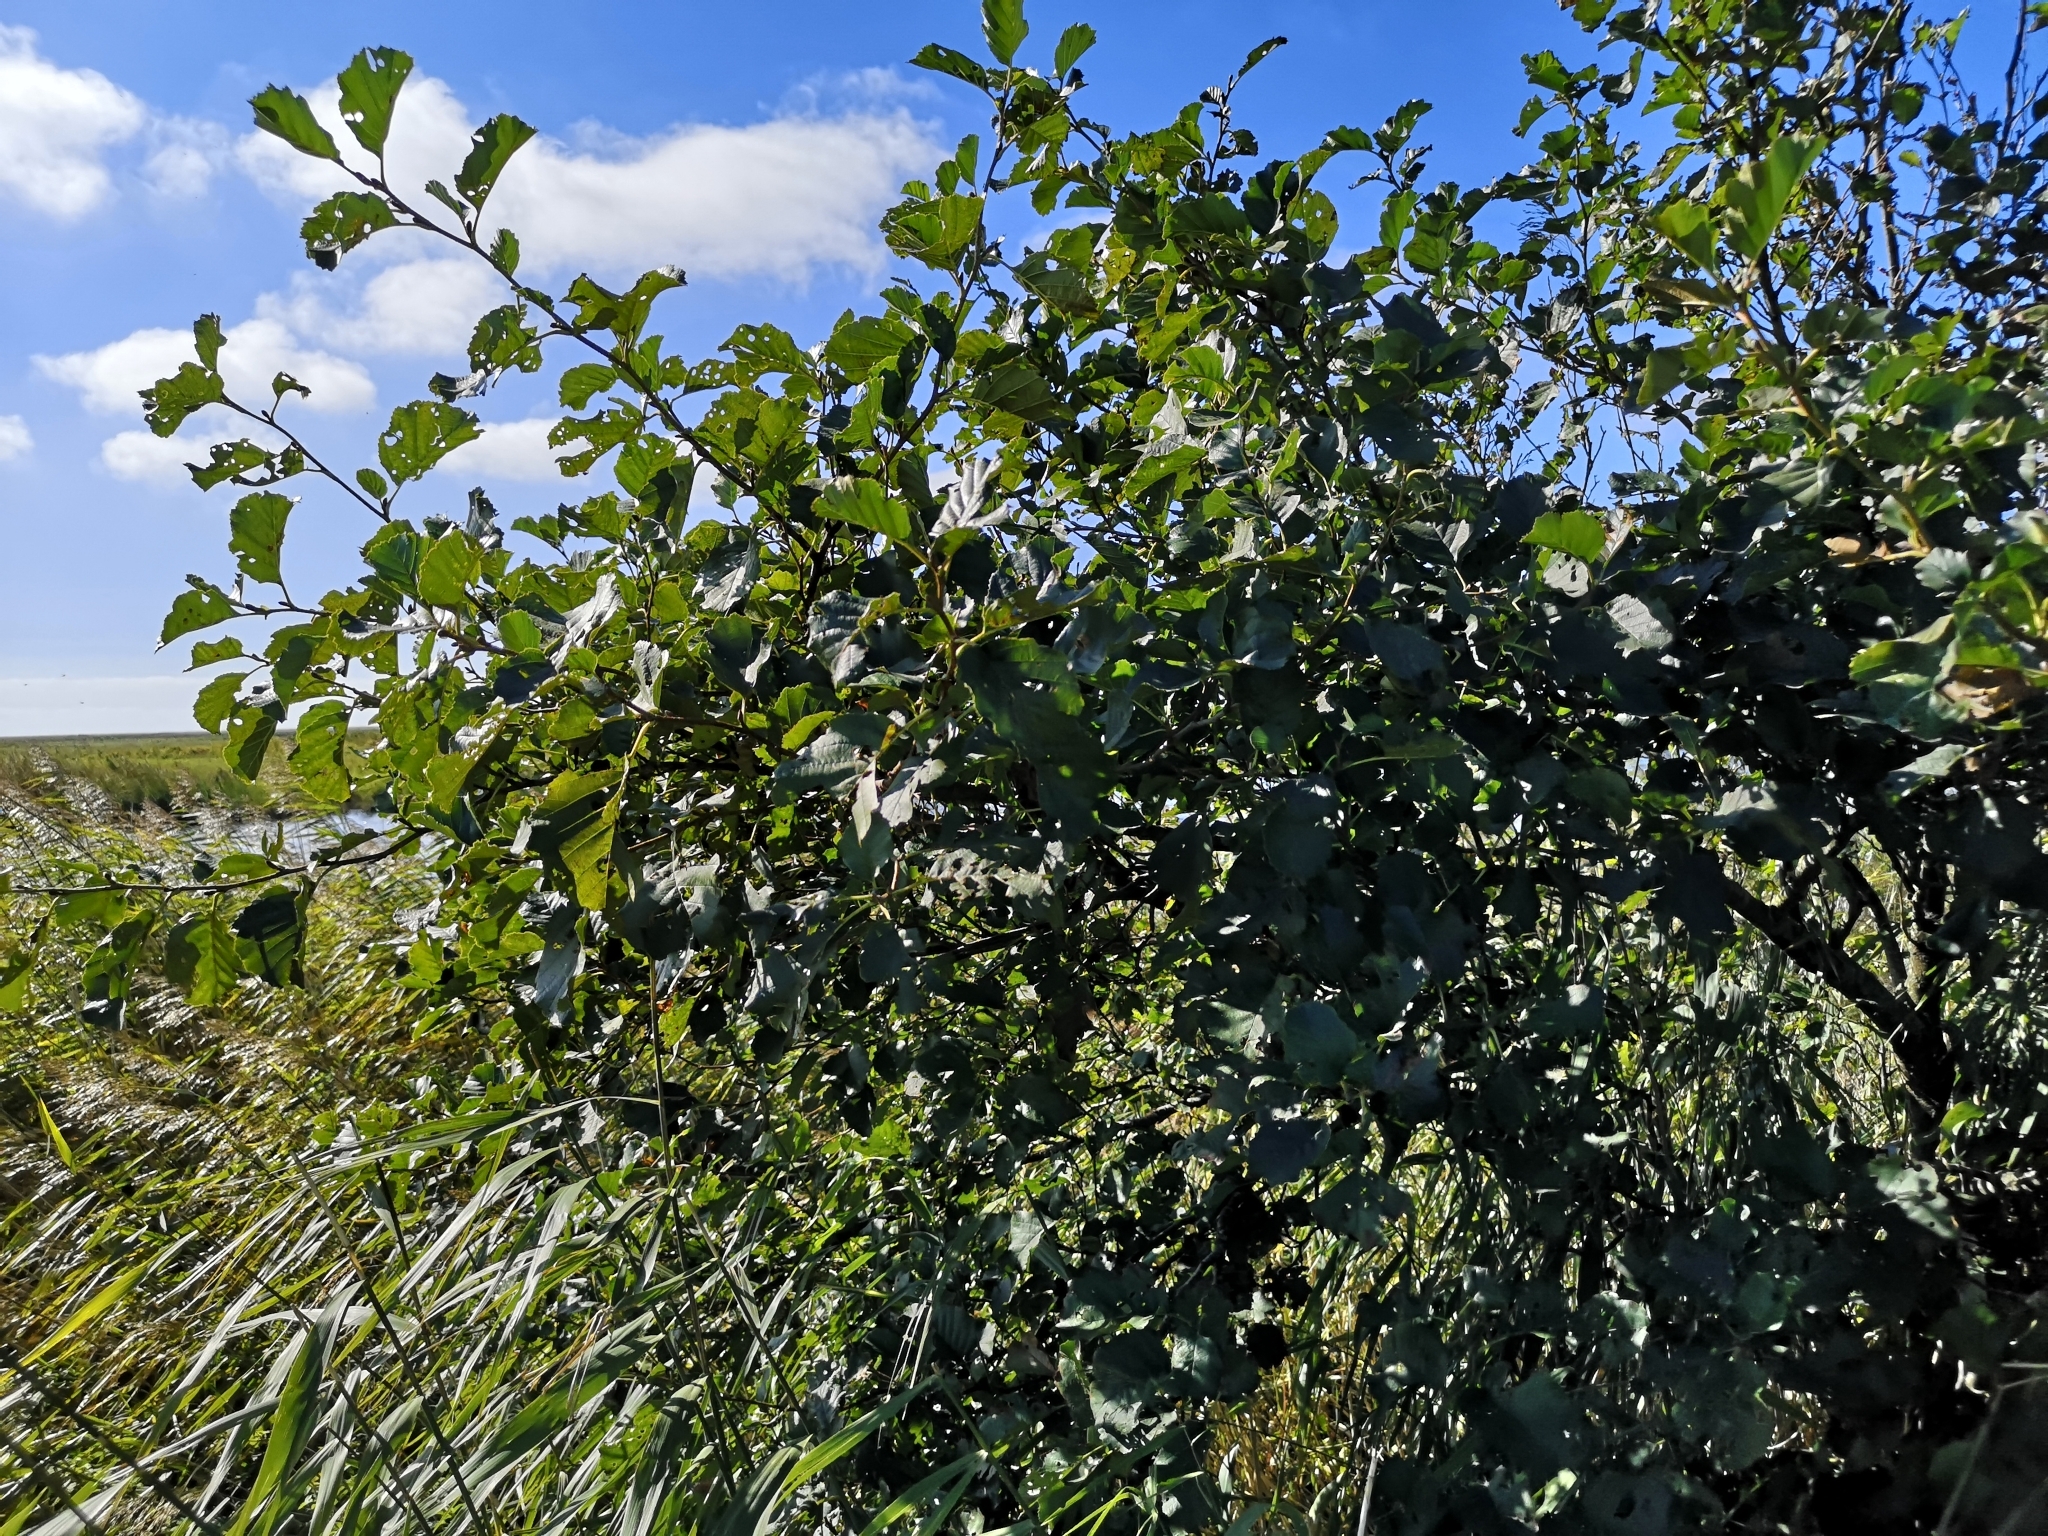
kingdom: Plantae
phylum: Tracheophyta
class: Magnoliopsida
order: Fagales
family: Betulaceae
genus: Alnus
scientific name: Alnus glutinosa
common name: Black alder
